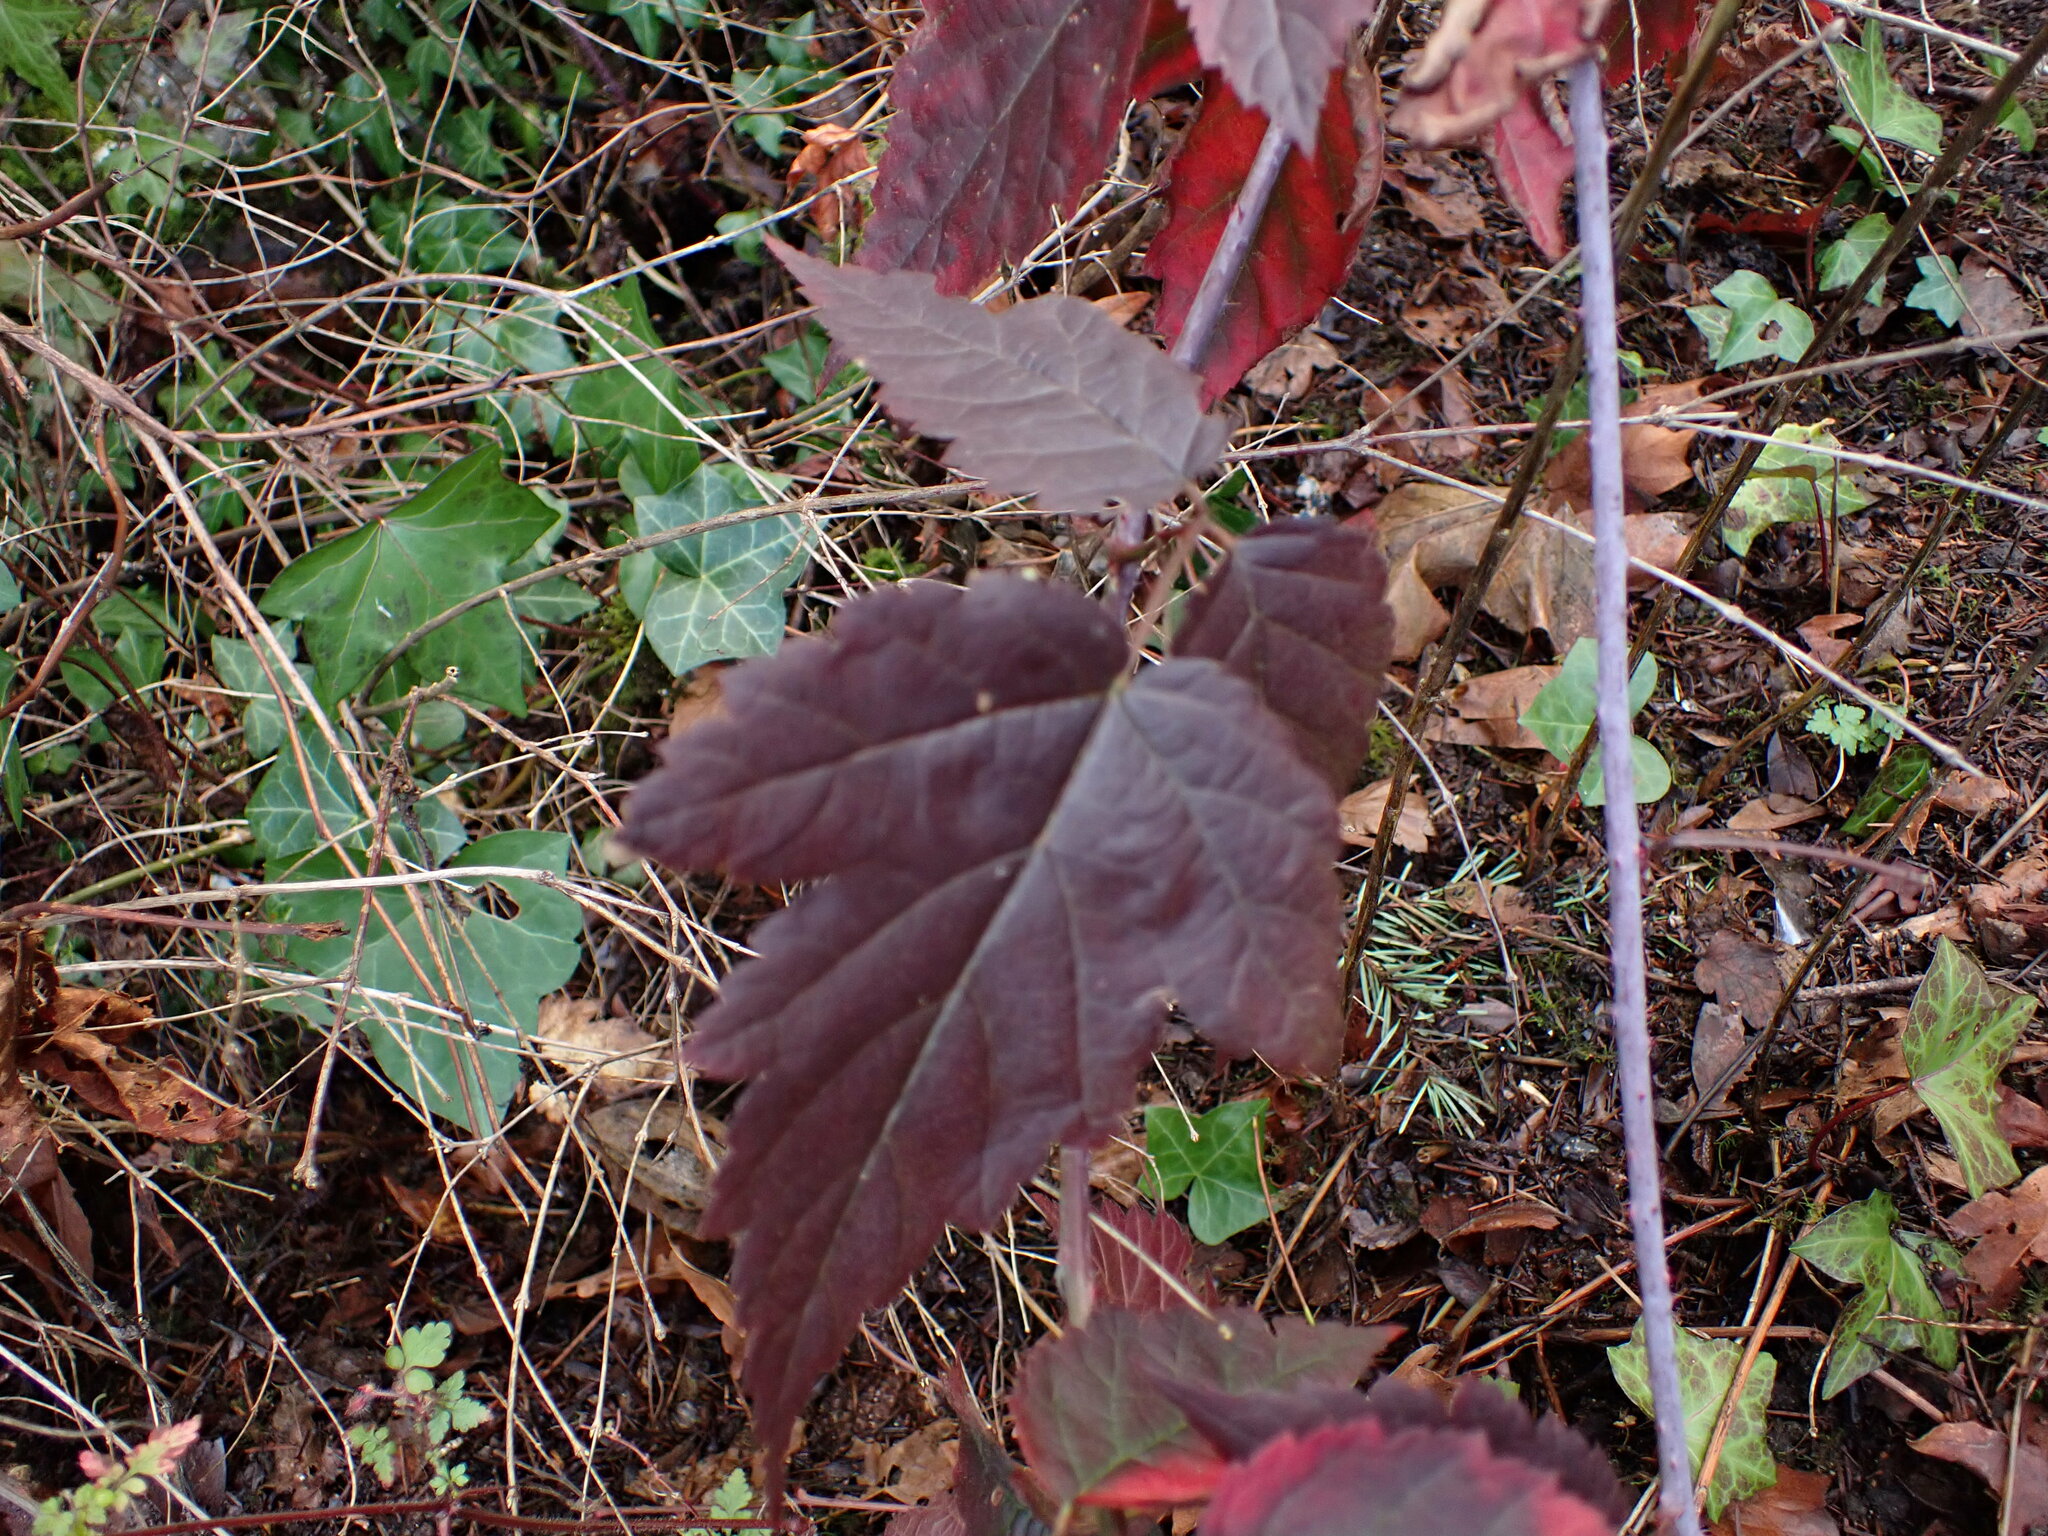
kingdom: Plantae
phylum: Tracheophyta
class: Magnoliopsida
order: Rosales
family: Rosaceae
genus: Rubus
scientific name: Rubus ursinus
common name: Pacific blackberry
